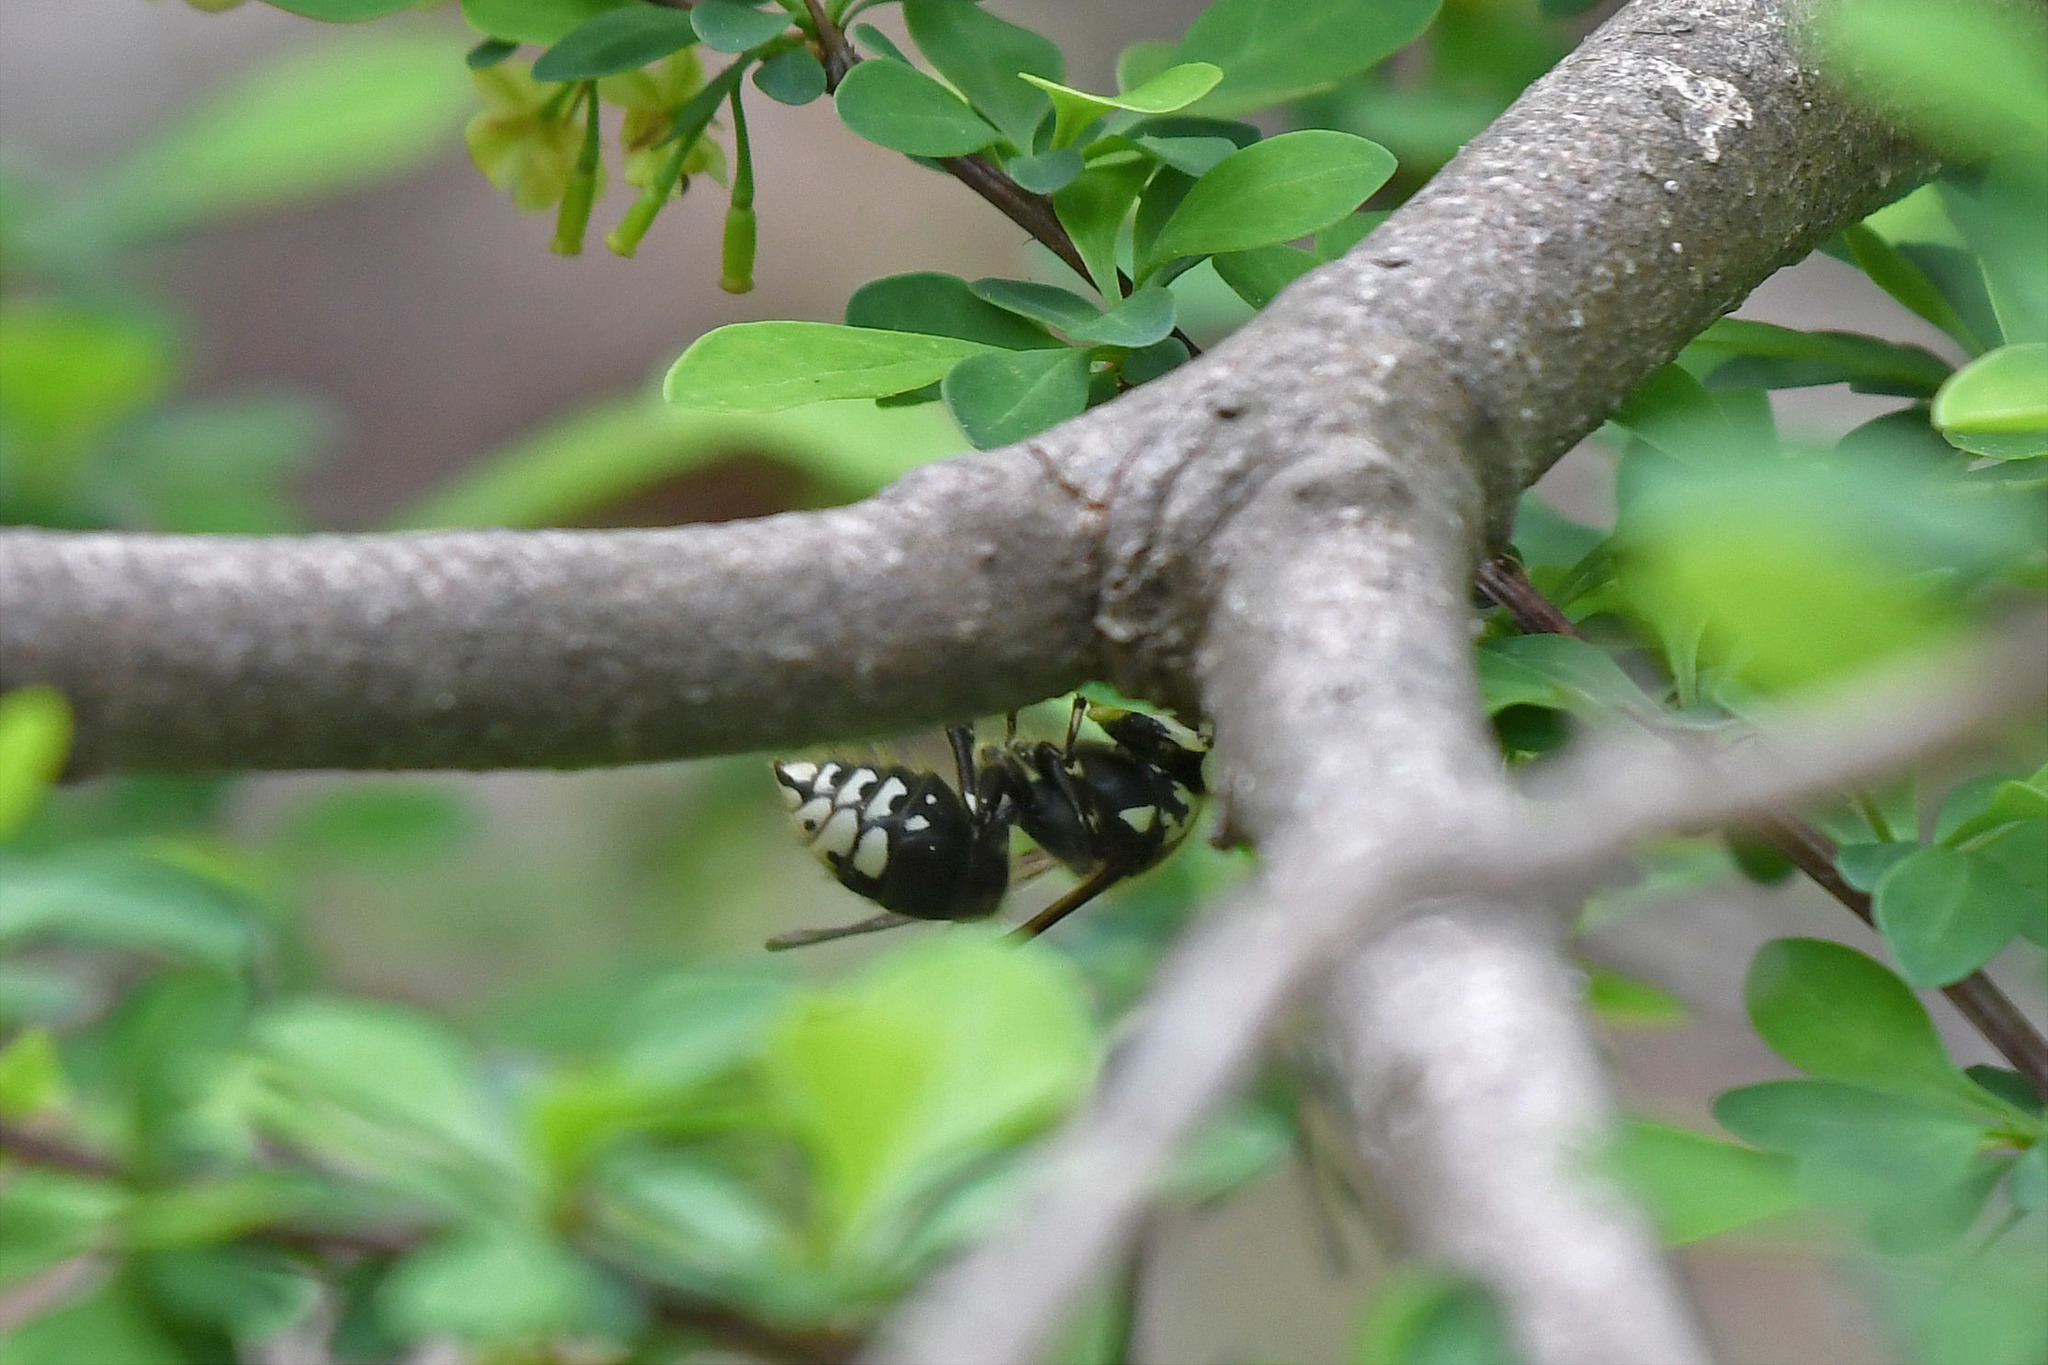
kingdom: Animalia
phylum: Arthropoda
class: Insecta
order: Hymenoptera
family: Vespidae
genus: Dolichovespula
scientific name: Dolichovespula maculata
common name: Bald-faced hornet
